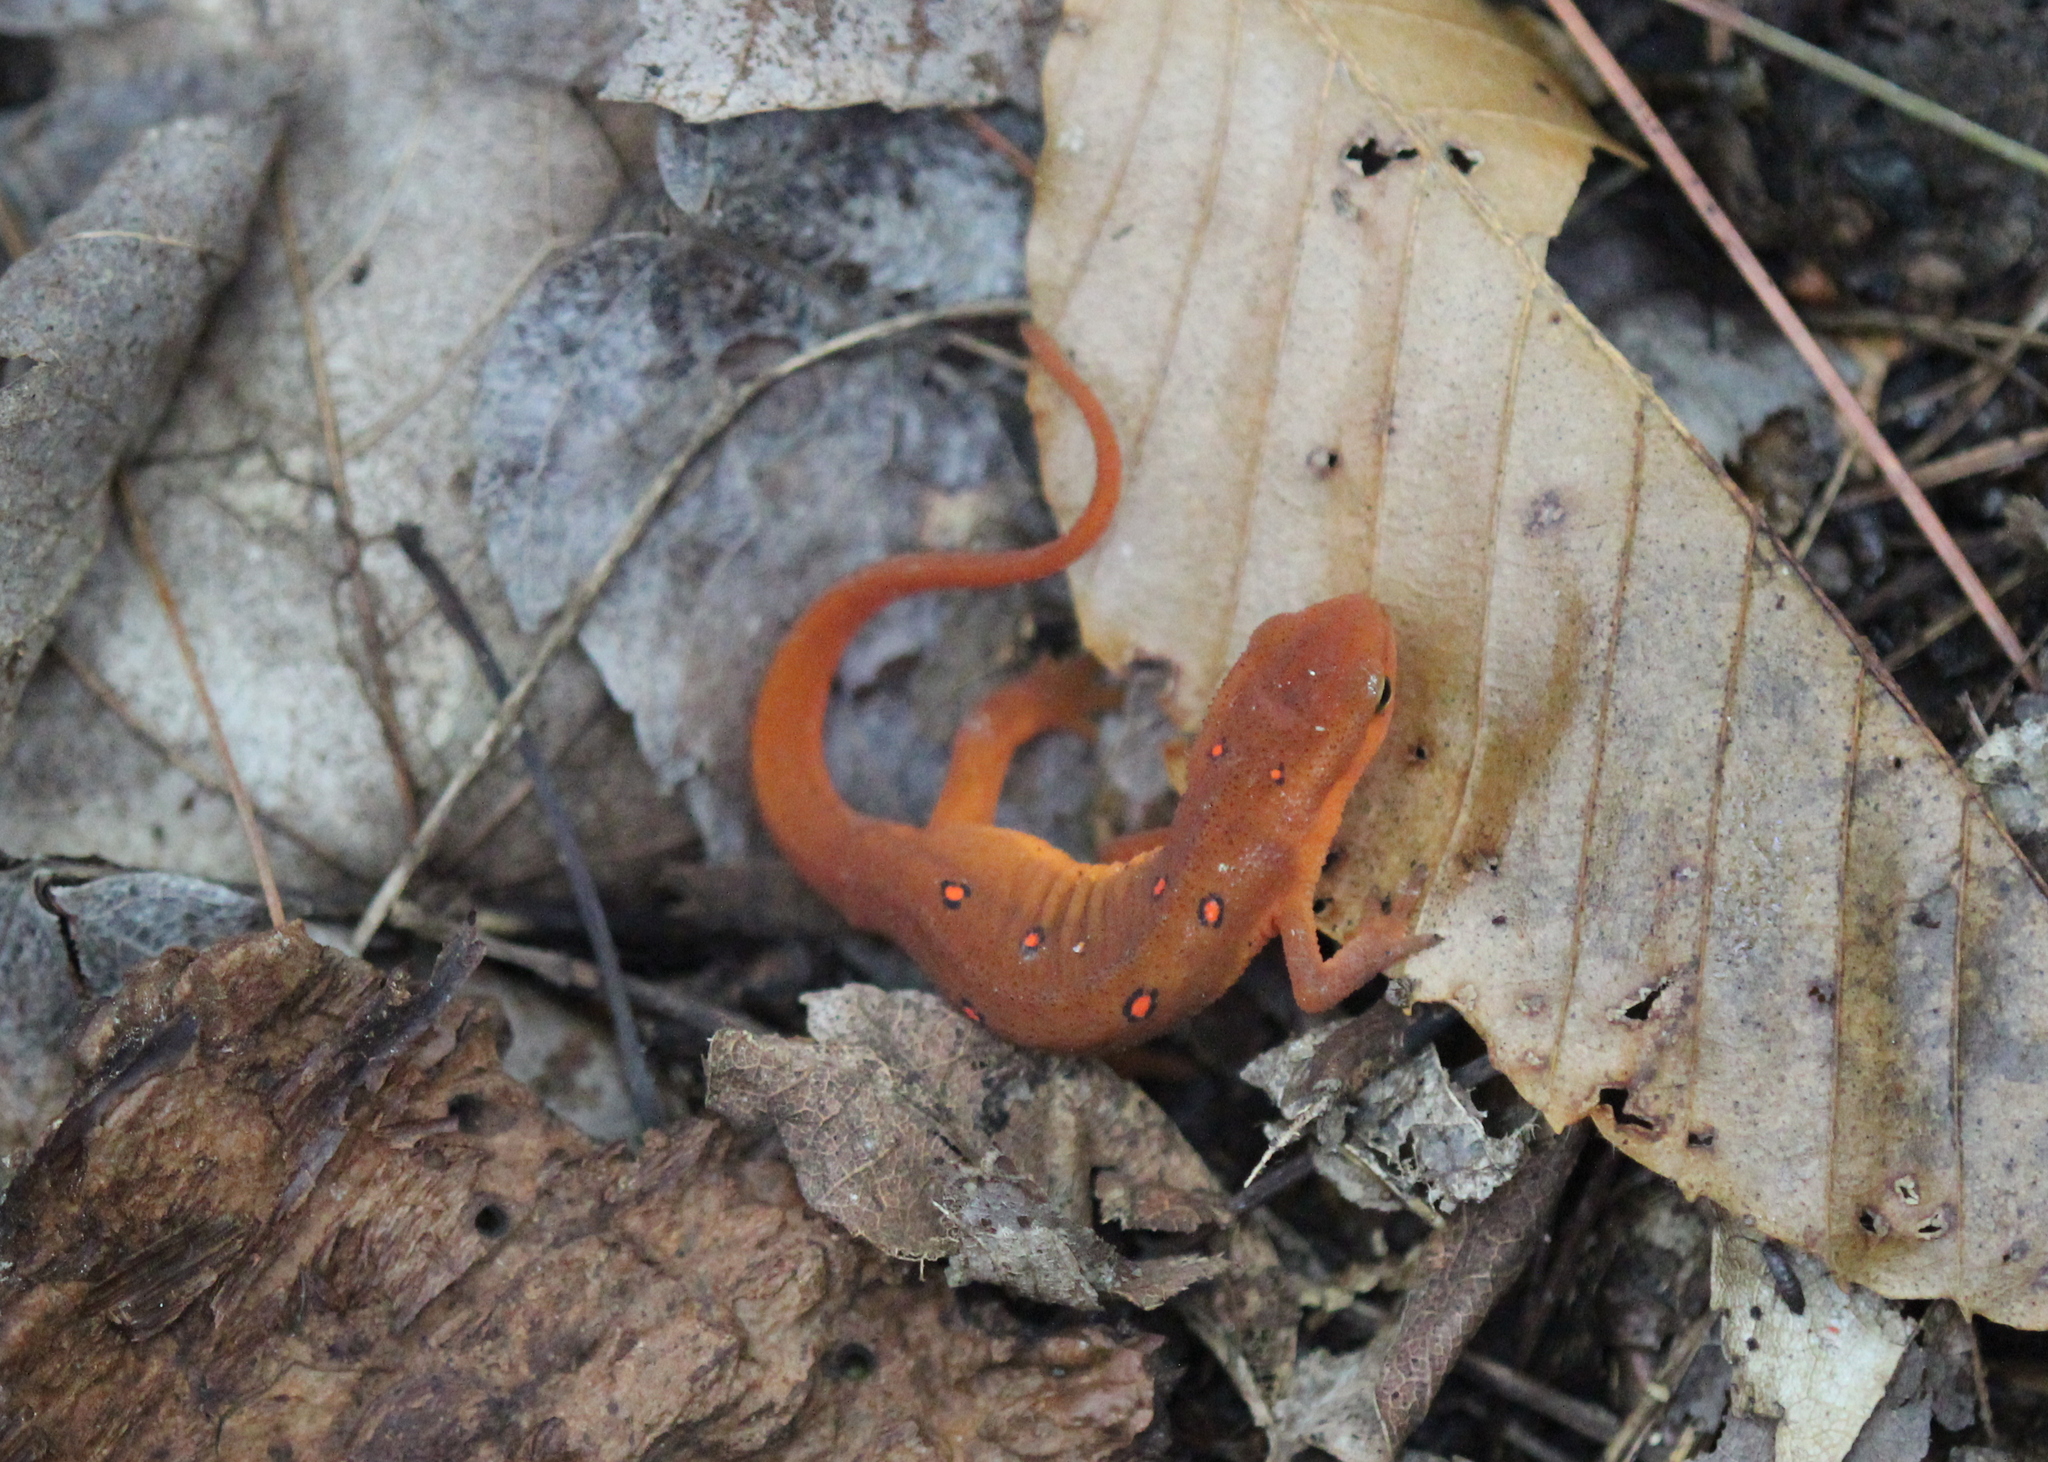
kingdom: Animalia
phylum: Chordata
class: Amphibia
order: Caudata
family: Salamandridae
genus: Notophthalmus
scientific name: Notophthalmus viridescens
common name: Eastern newt
